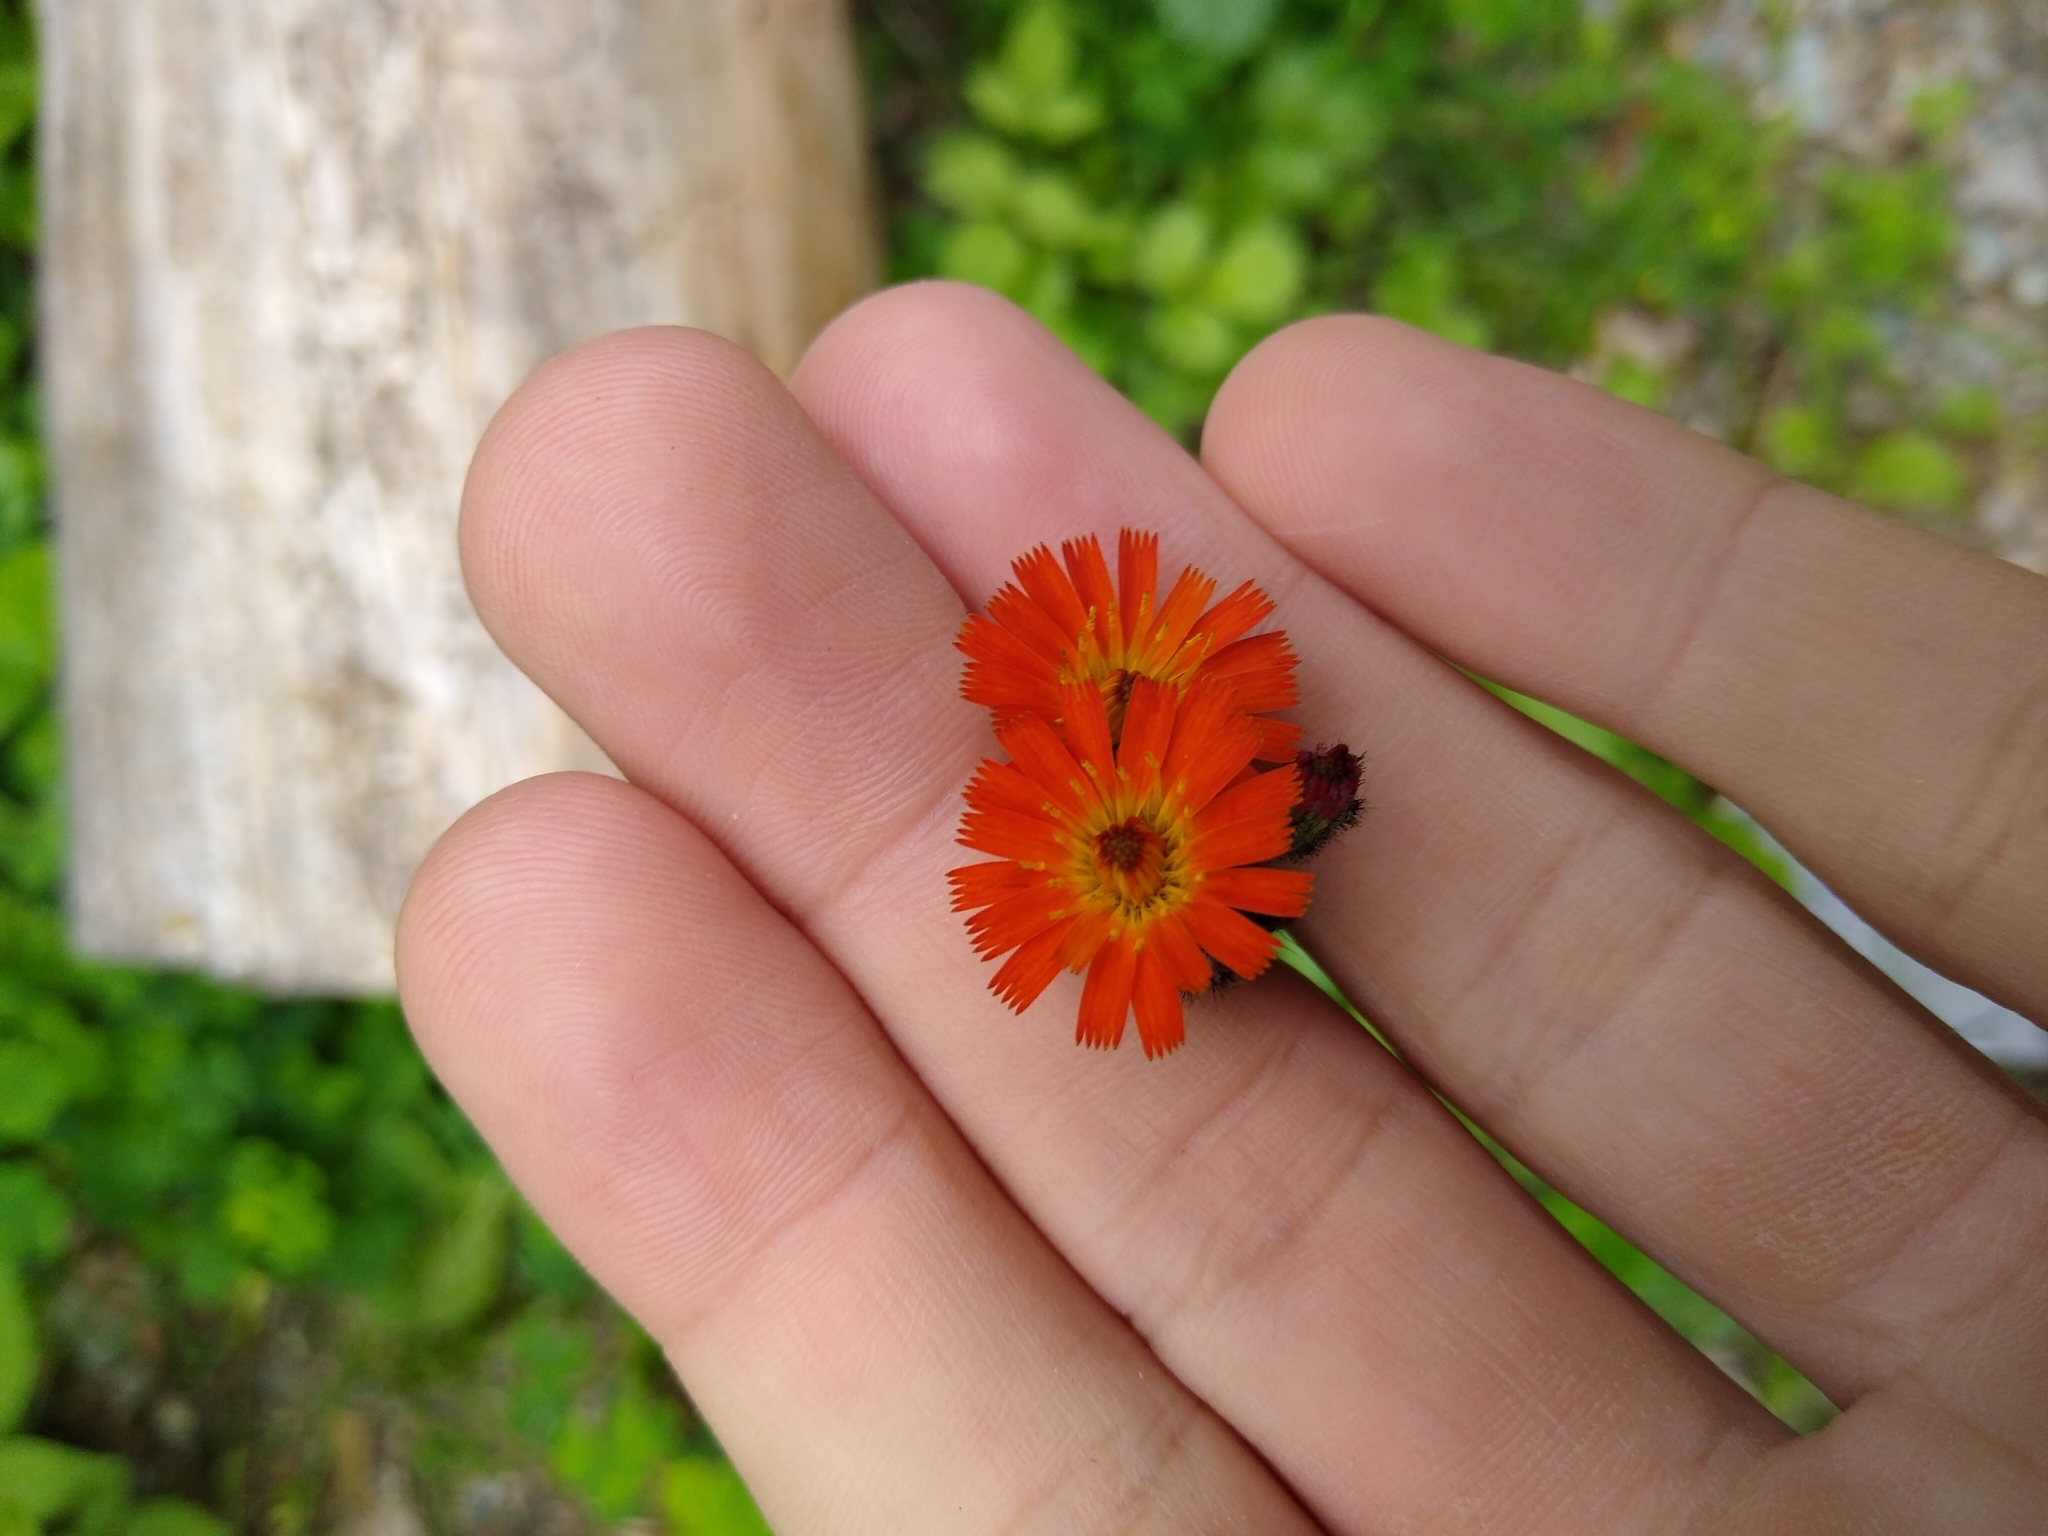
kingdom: Plantae
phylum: Tracheophyta
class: Magnoliopsida
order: Asterales
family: Asteraceae
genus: Pilosella
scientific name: Pilosella aurantiaca
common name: Fox-and-cubs
